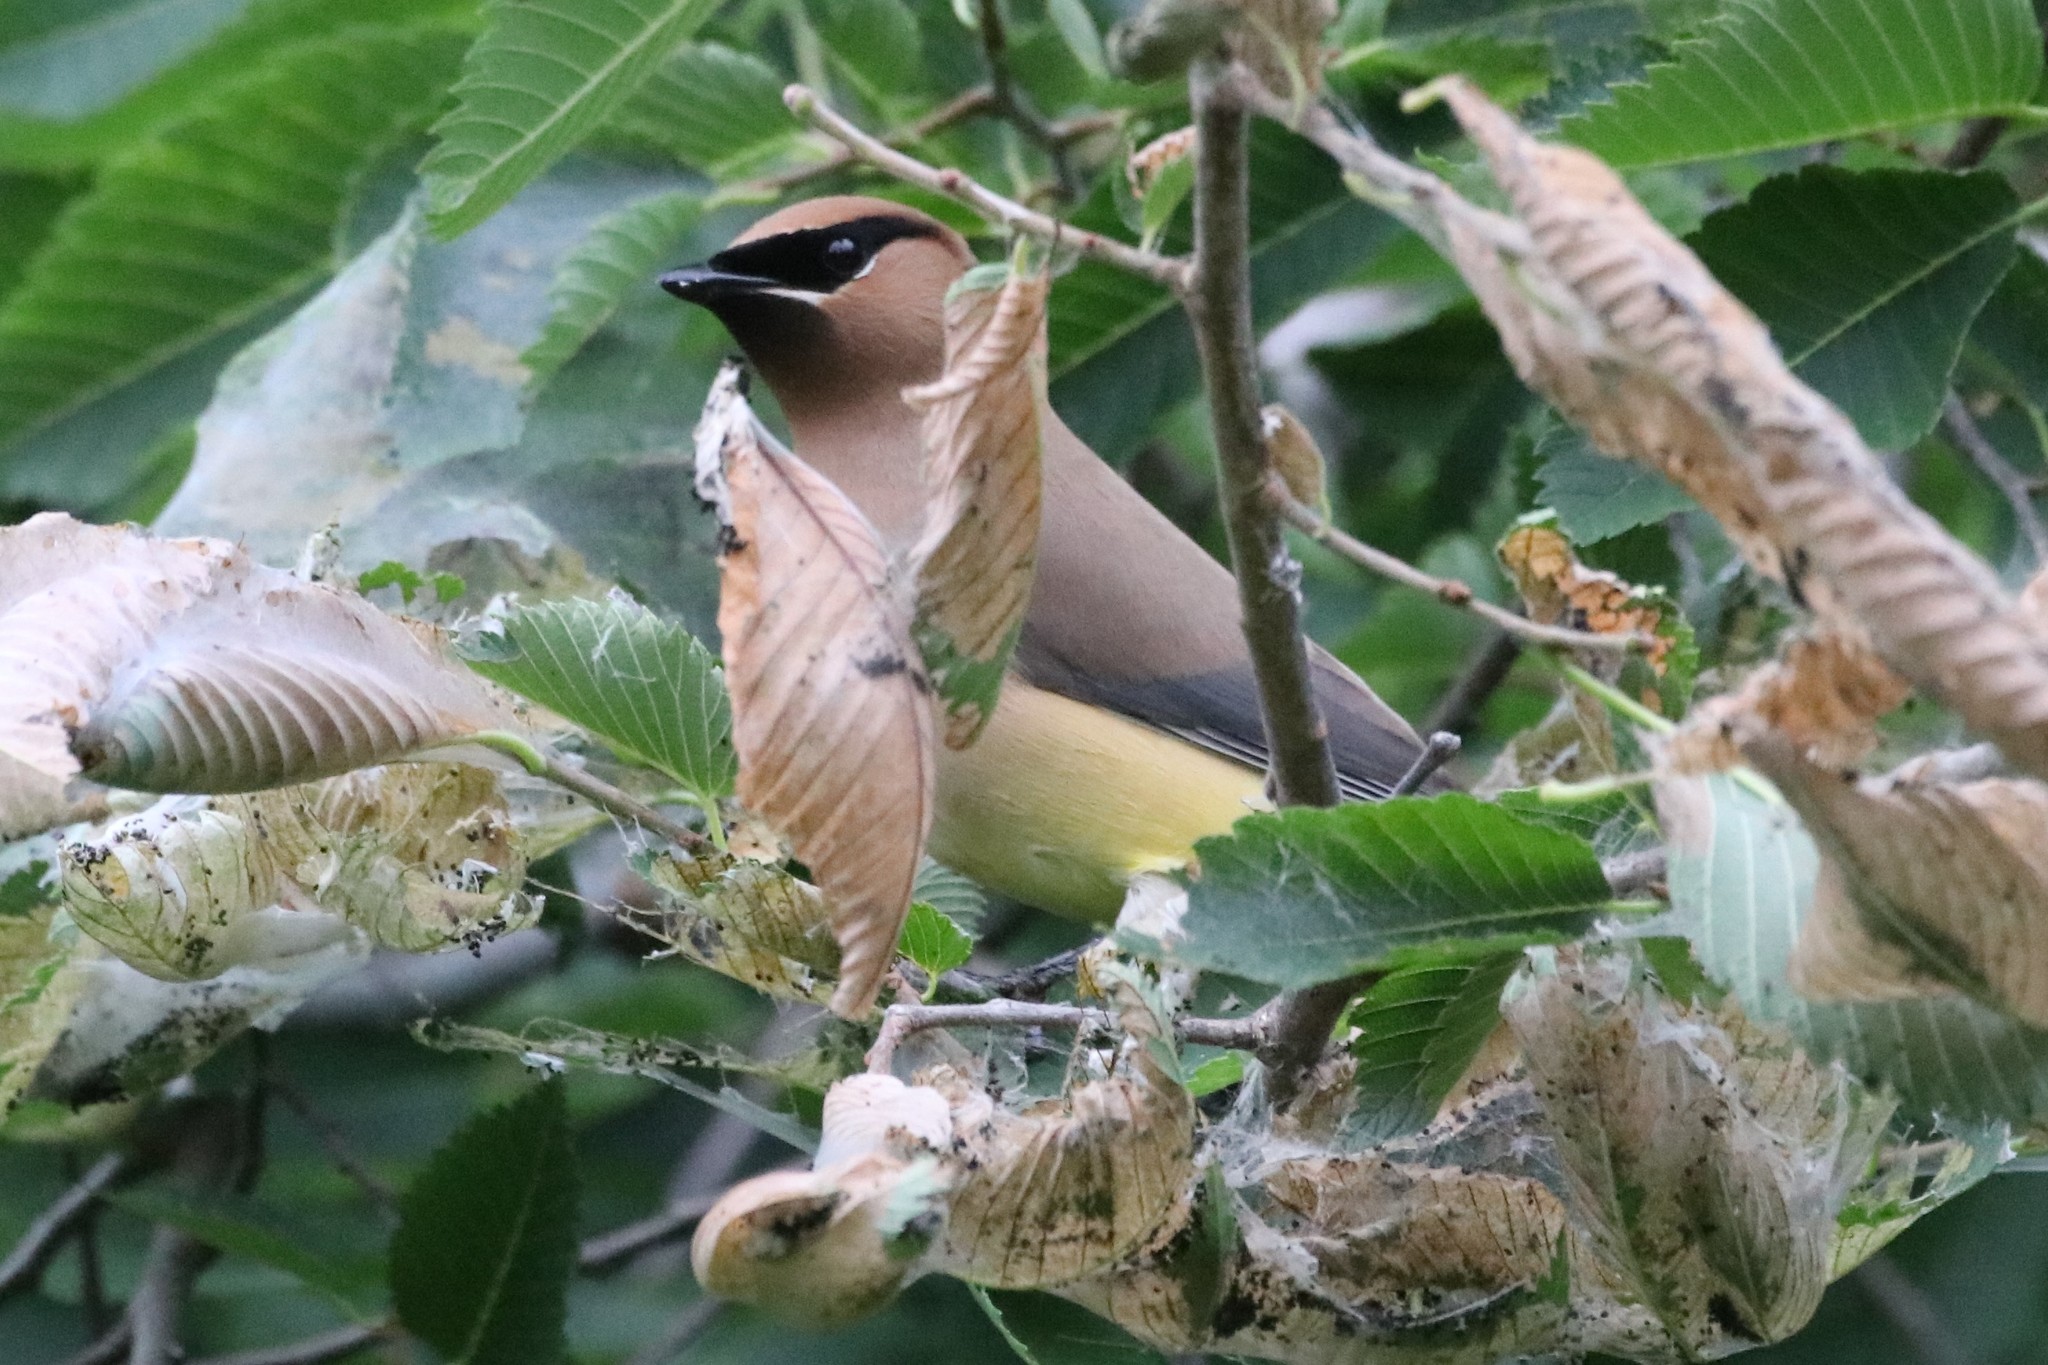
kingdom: Animalia
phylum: Chordata
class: Aves
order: Passeriformes
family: Bombycillidae
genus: Bombycilla
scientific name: Bombycilla cedrorum
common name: Cedar waxwing
